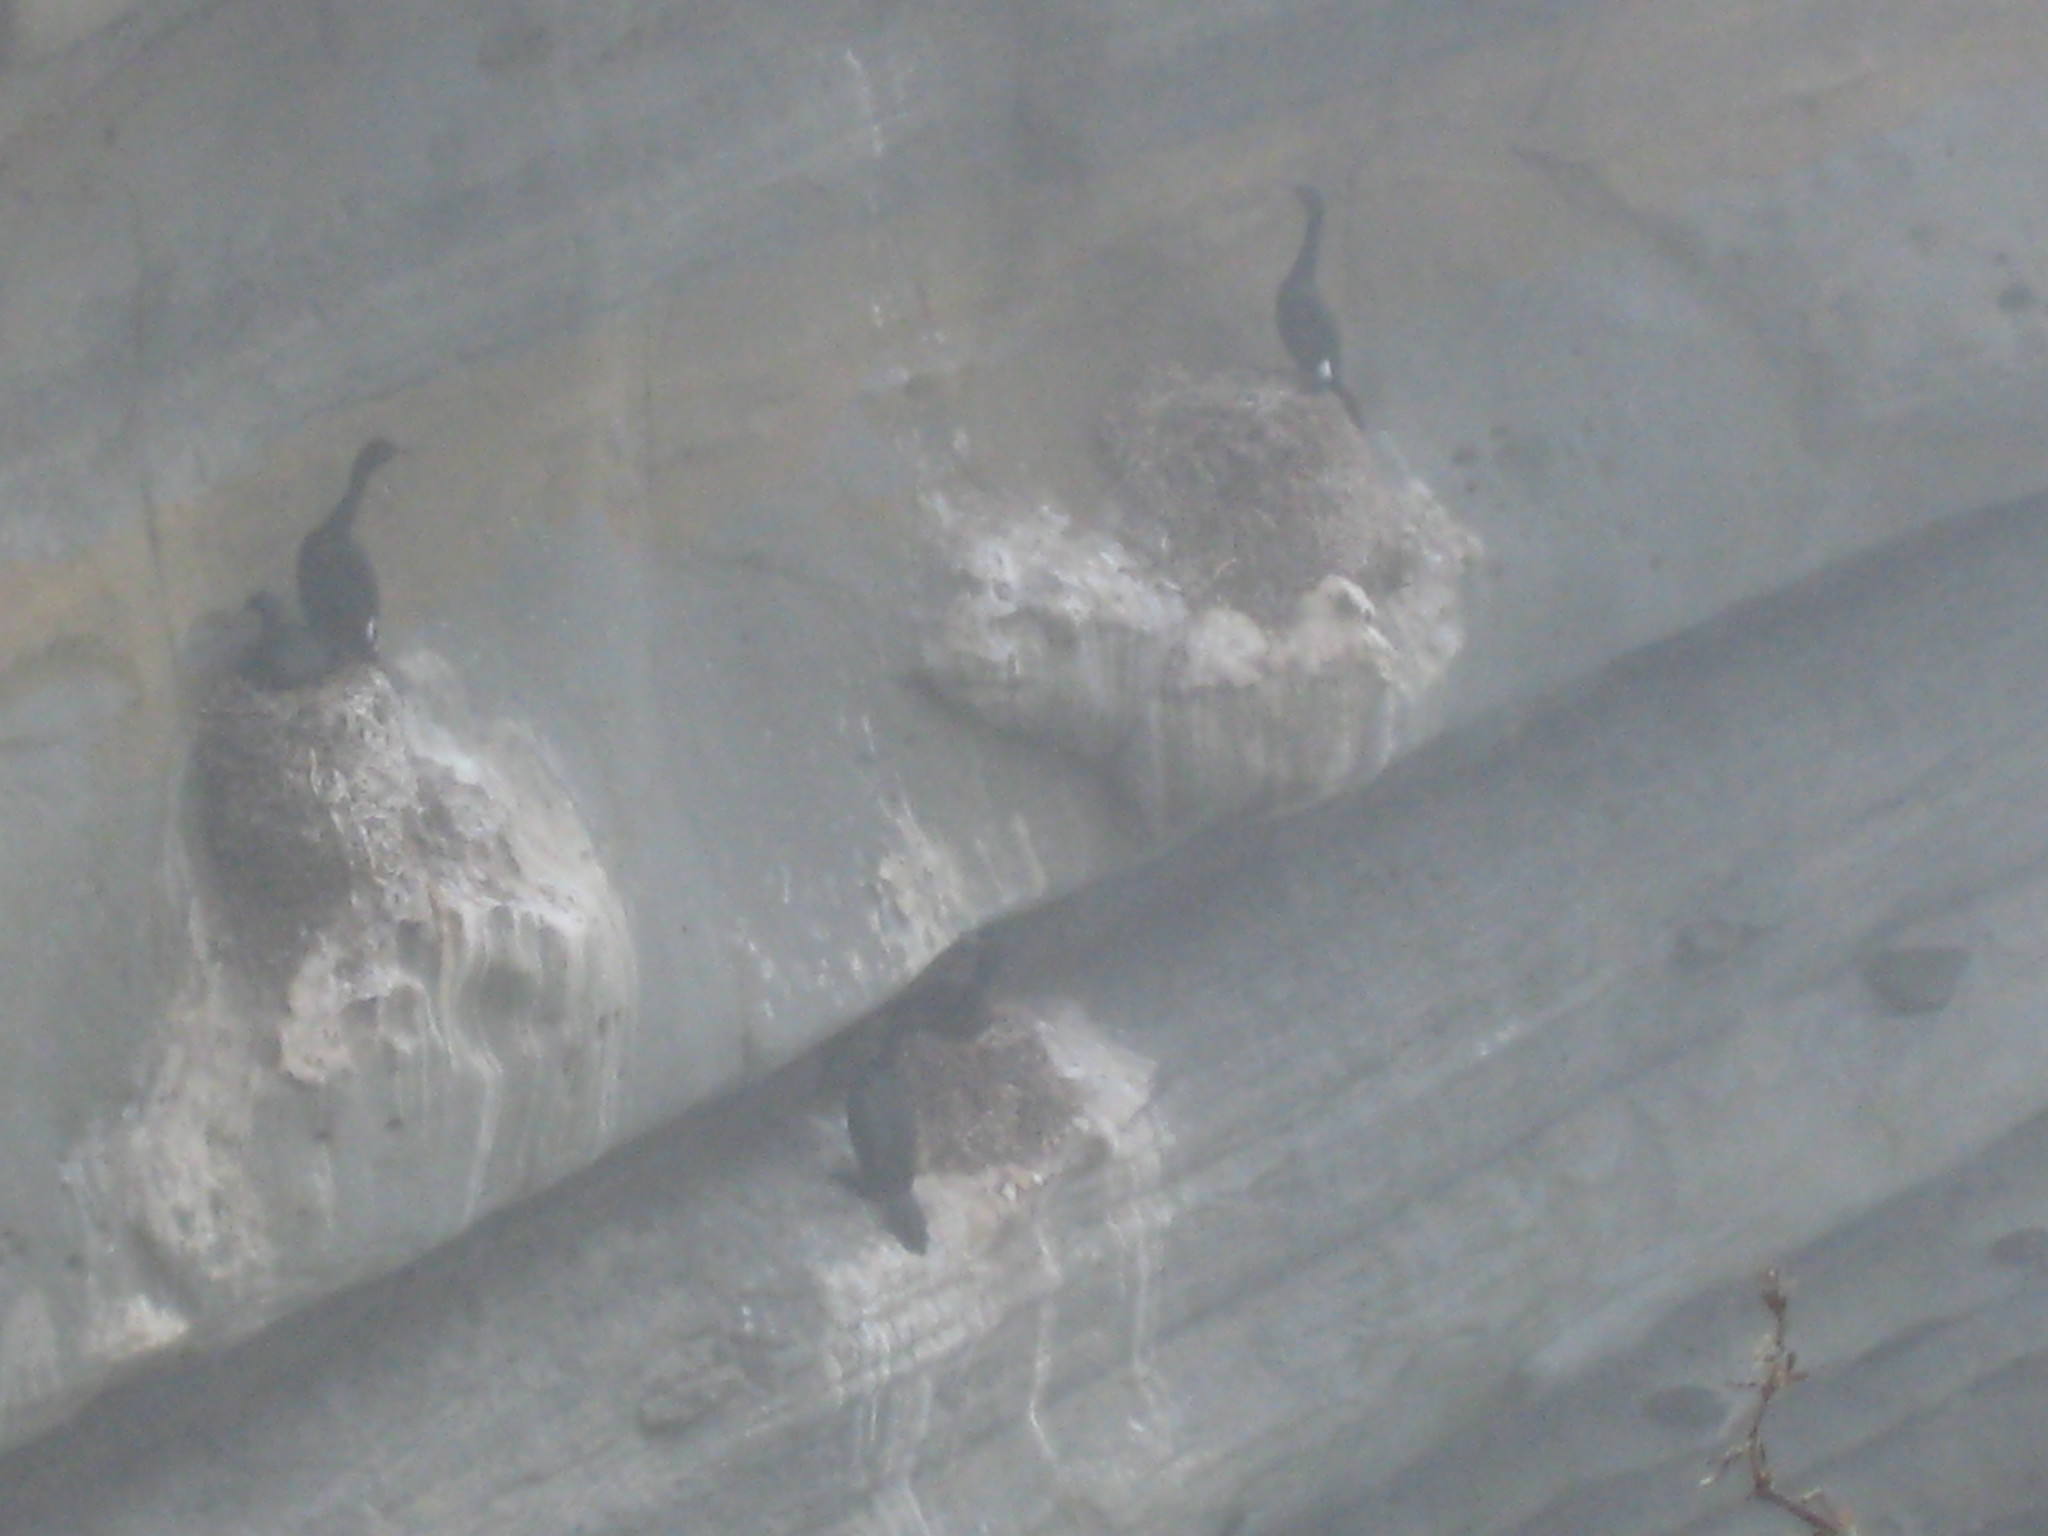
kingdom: Animalia
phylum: Chordata
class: Aves
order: Suliformes
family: Phalacrocoracidae
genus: Phalacrocorax
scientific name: Phalacrocorax pelagicus
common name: Pelagic cormorant
